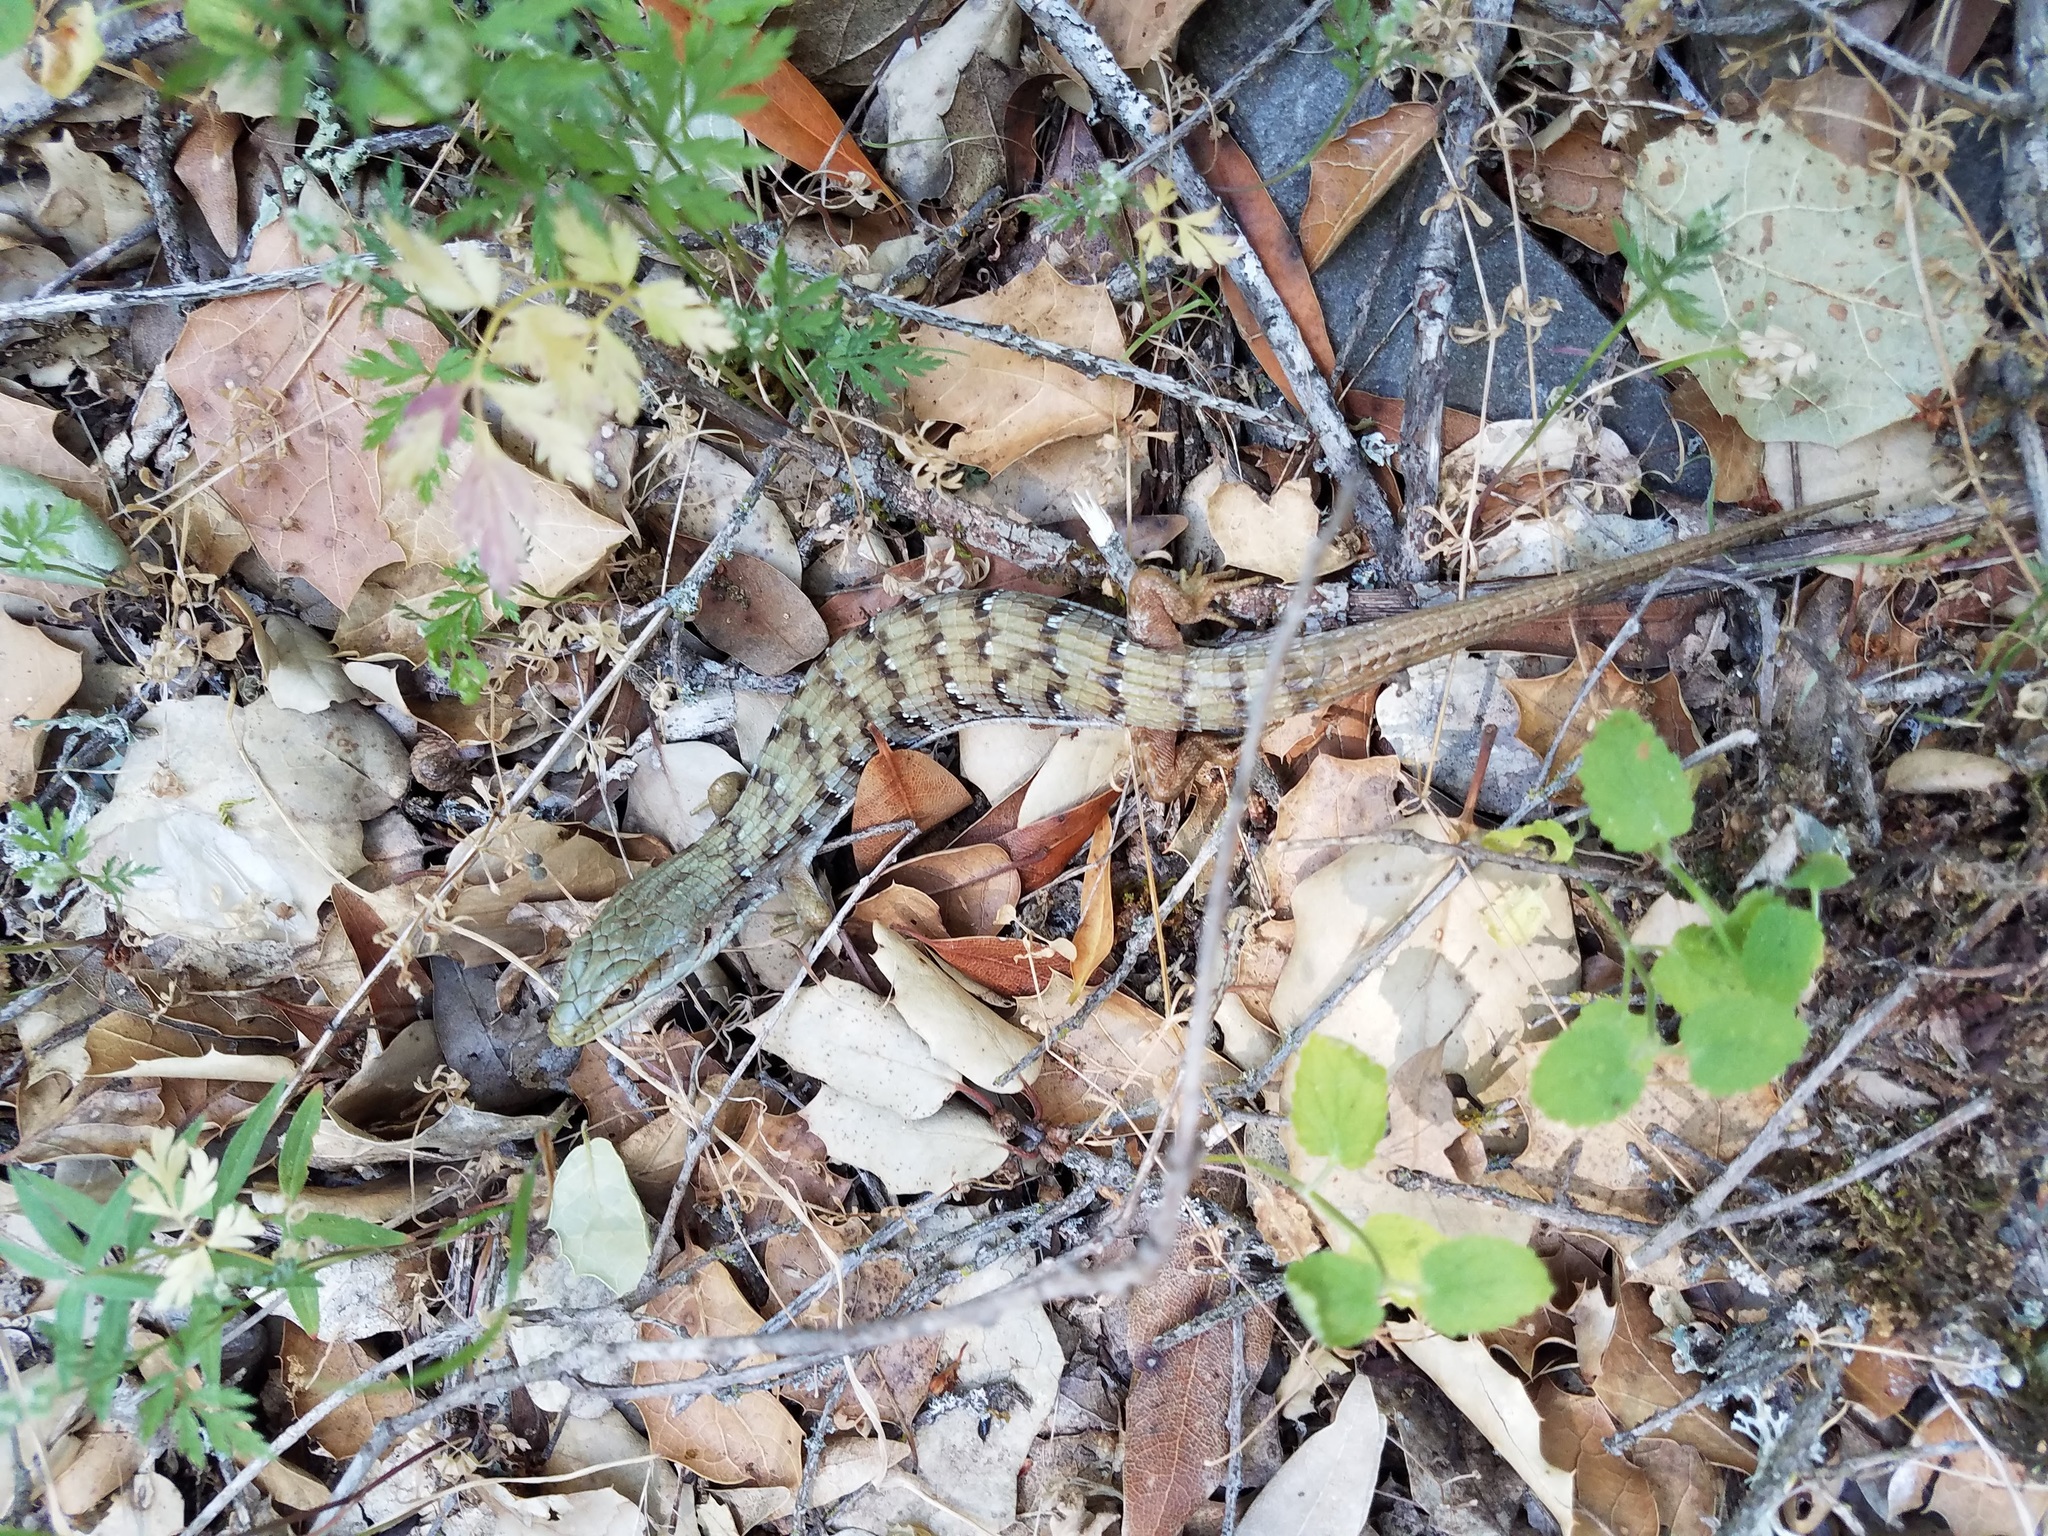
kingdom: Animalia
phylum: Chordata
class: Squamata
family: Anguidae
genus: Elgaria
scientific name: Elgaria multicarinata
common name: Southern alligator lizard
